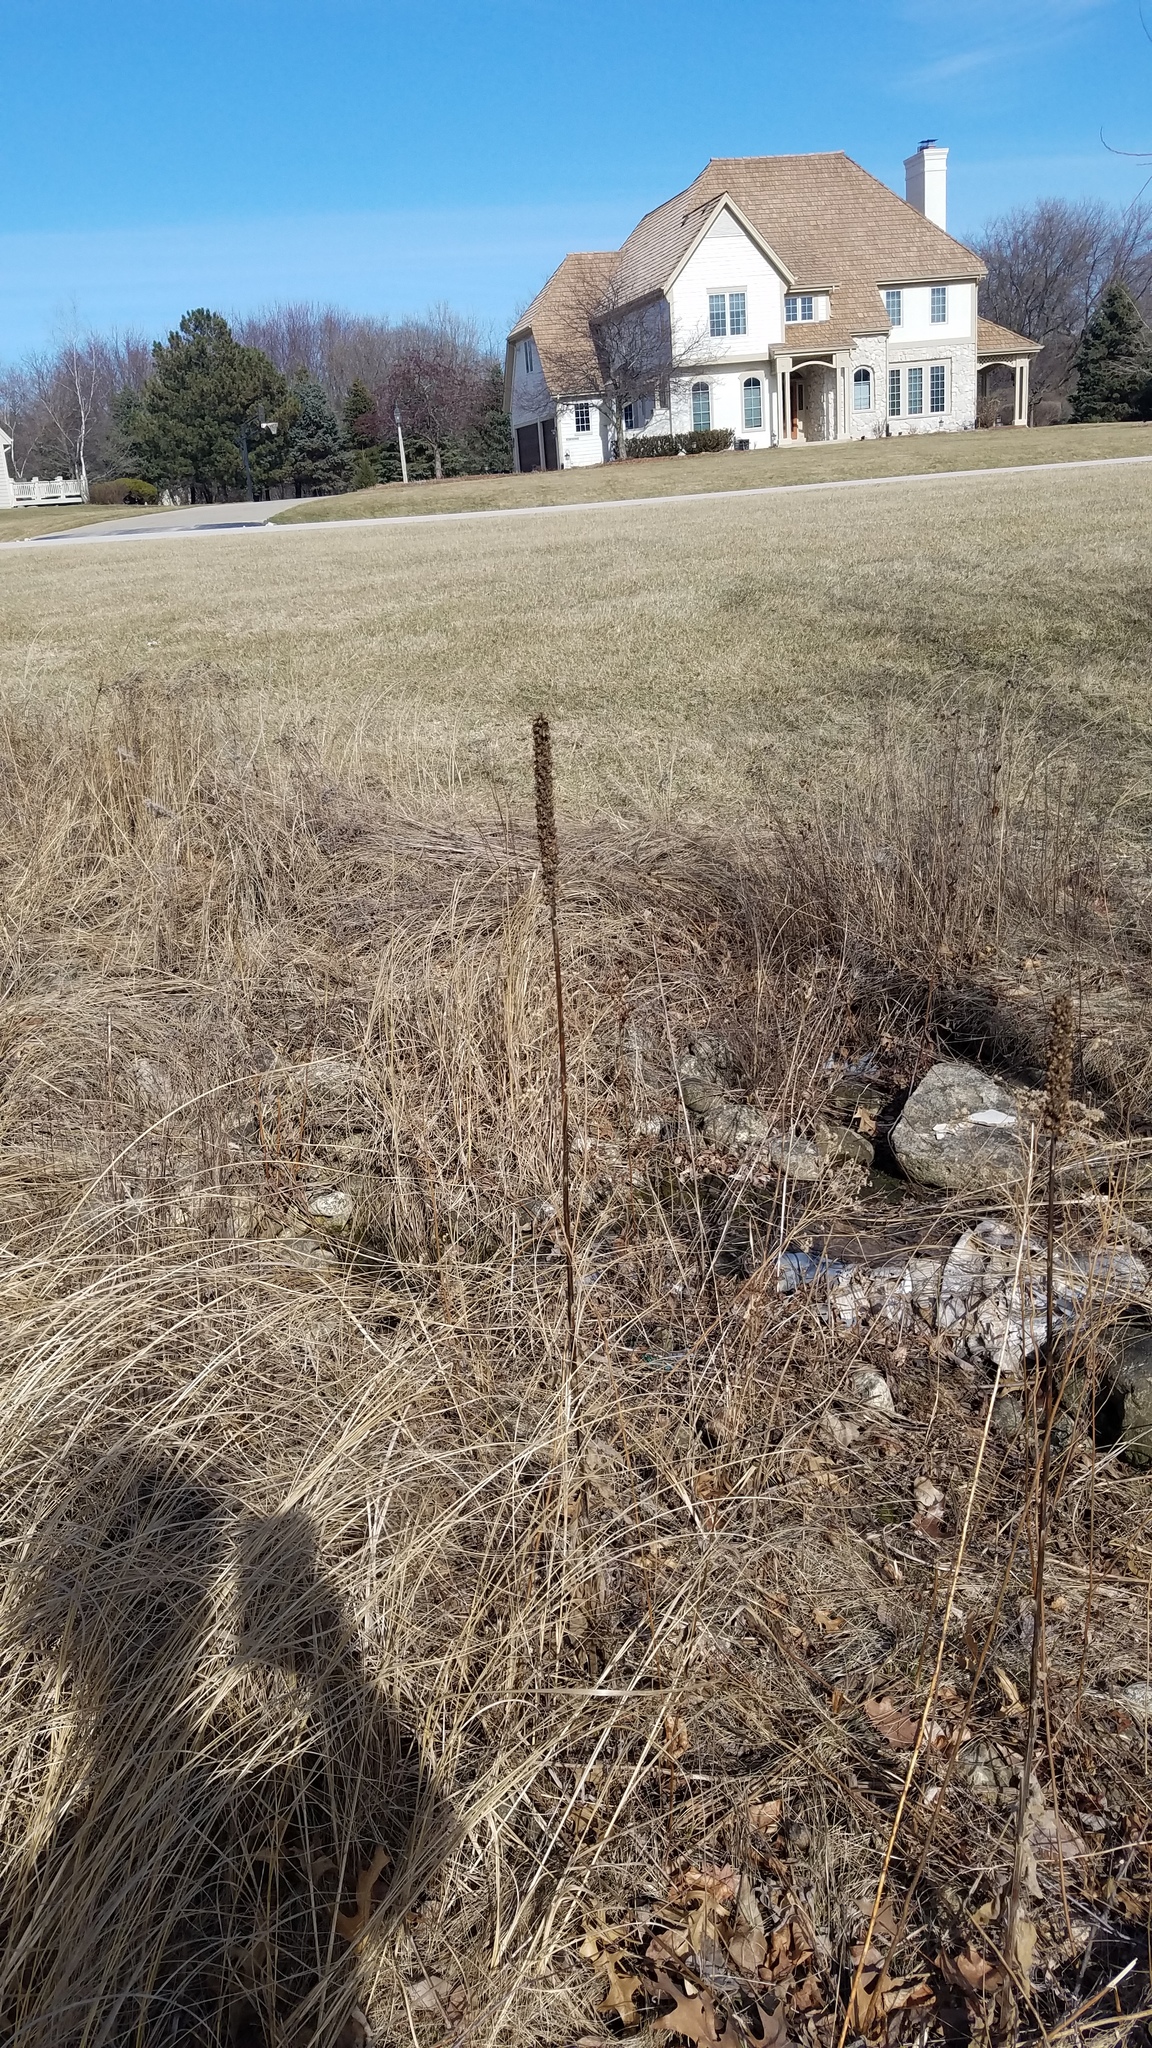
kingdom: Plantae
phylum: Tracheophyta
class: Magnoliopsida
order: Lamiales
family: Scrophulariaceae
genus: Verbascum
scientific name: Verbascum thapsus
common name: Common mullein
